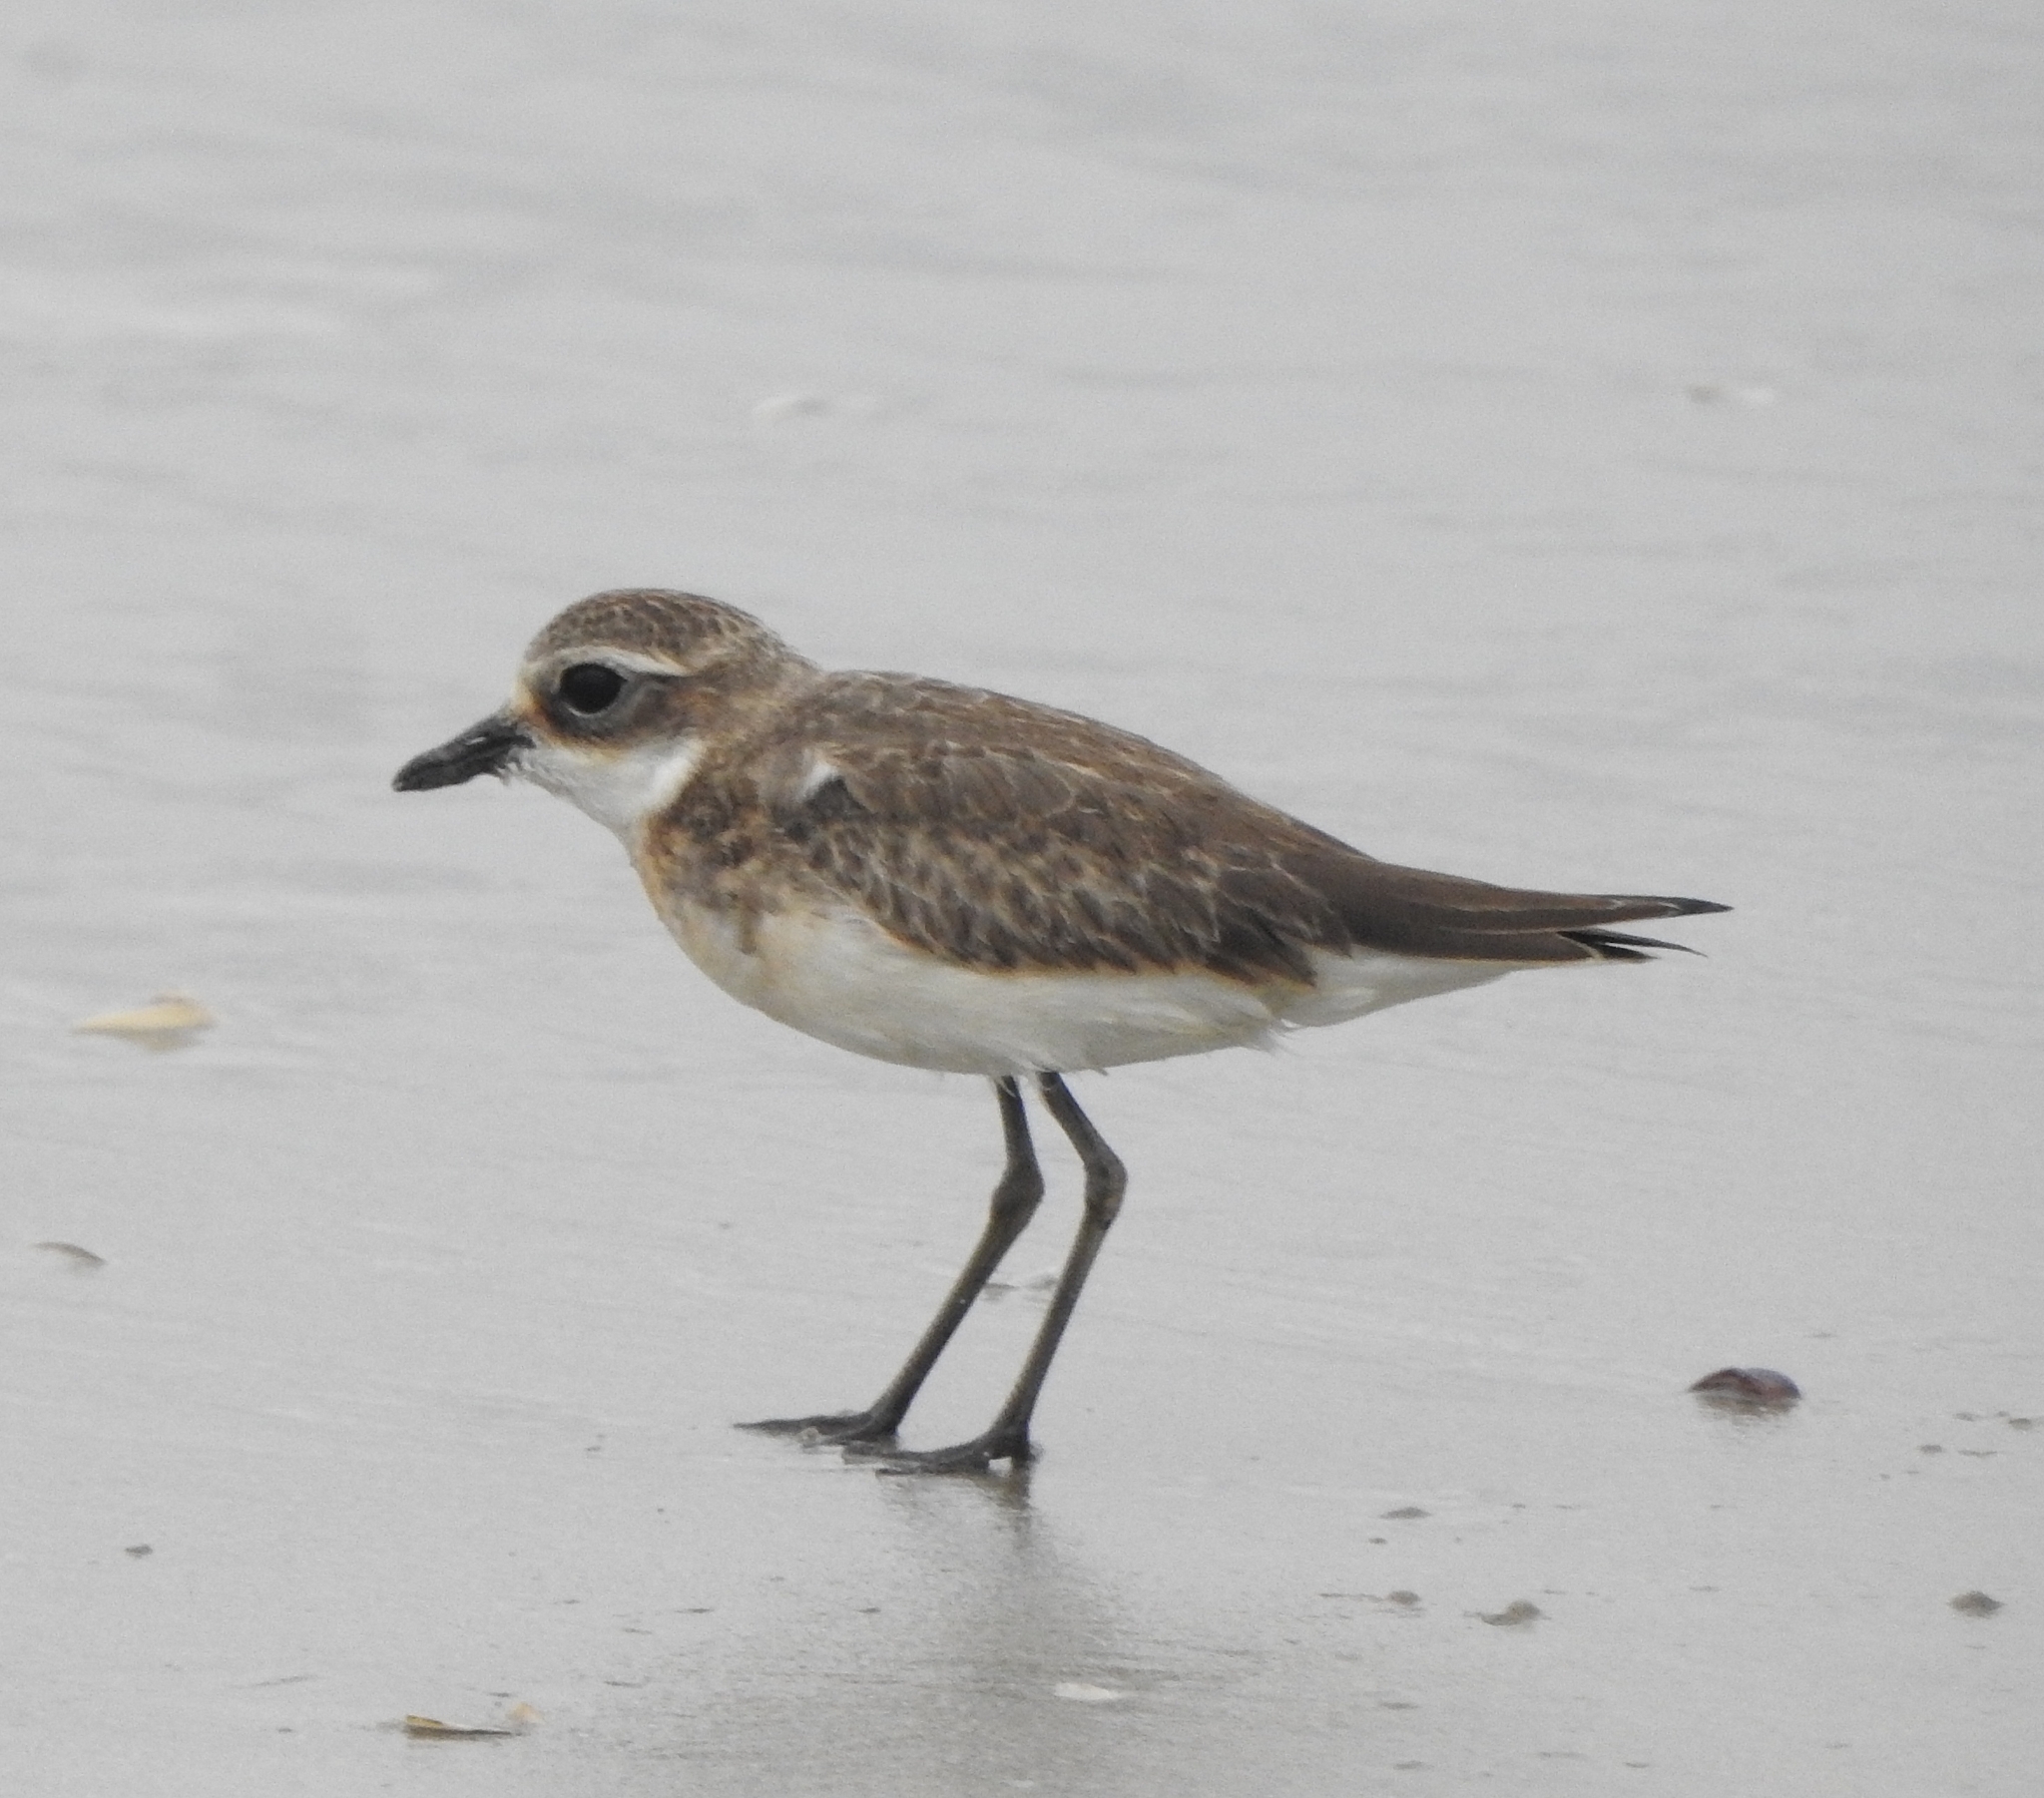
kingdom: Animalia
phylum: Chordata
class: Aves
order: Charadriiformes
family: Charadriidae
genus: Anarhynchus
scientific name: Anarhynchus
